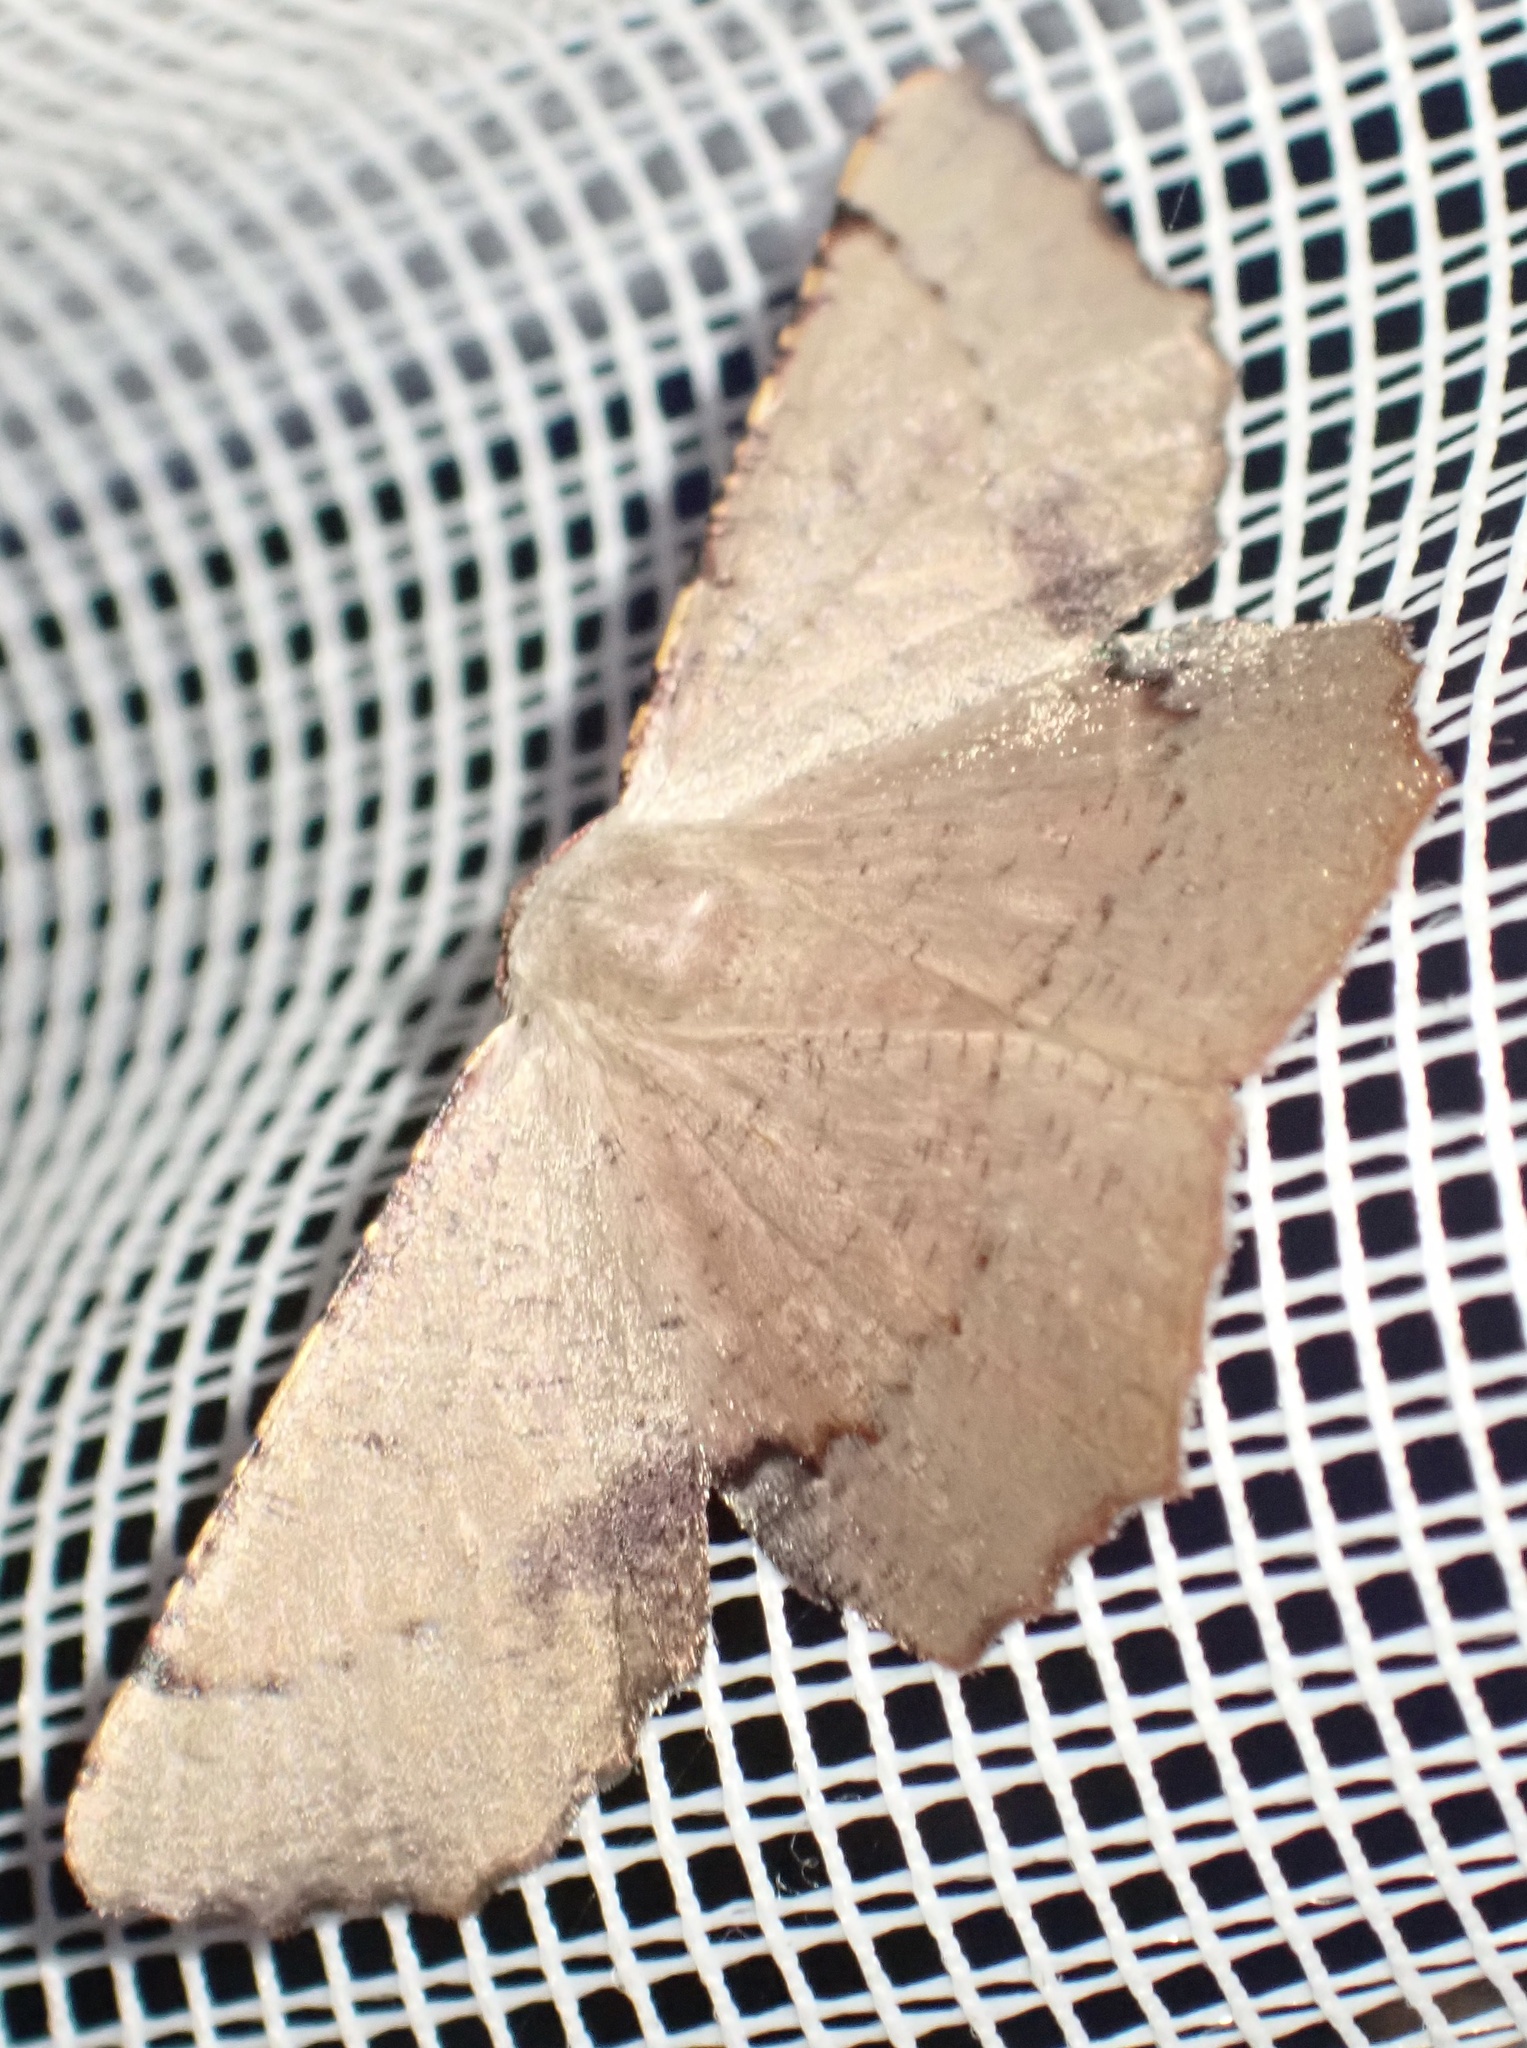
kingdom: Animalia
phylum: Arthropoda
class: Insecta
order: Lepidoptera
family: Geometridae
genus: Cernia
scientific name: Cernia amyclaria
